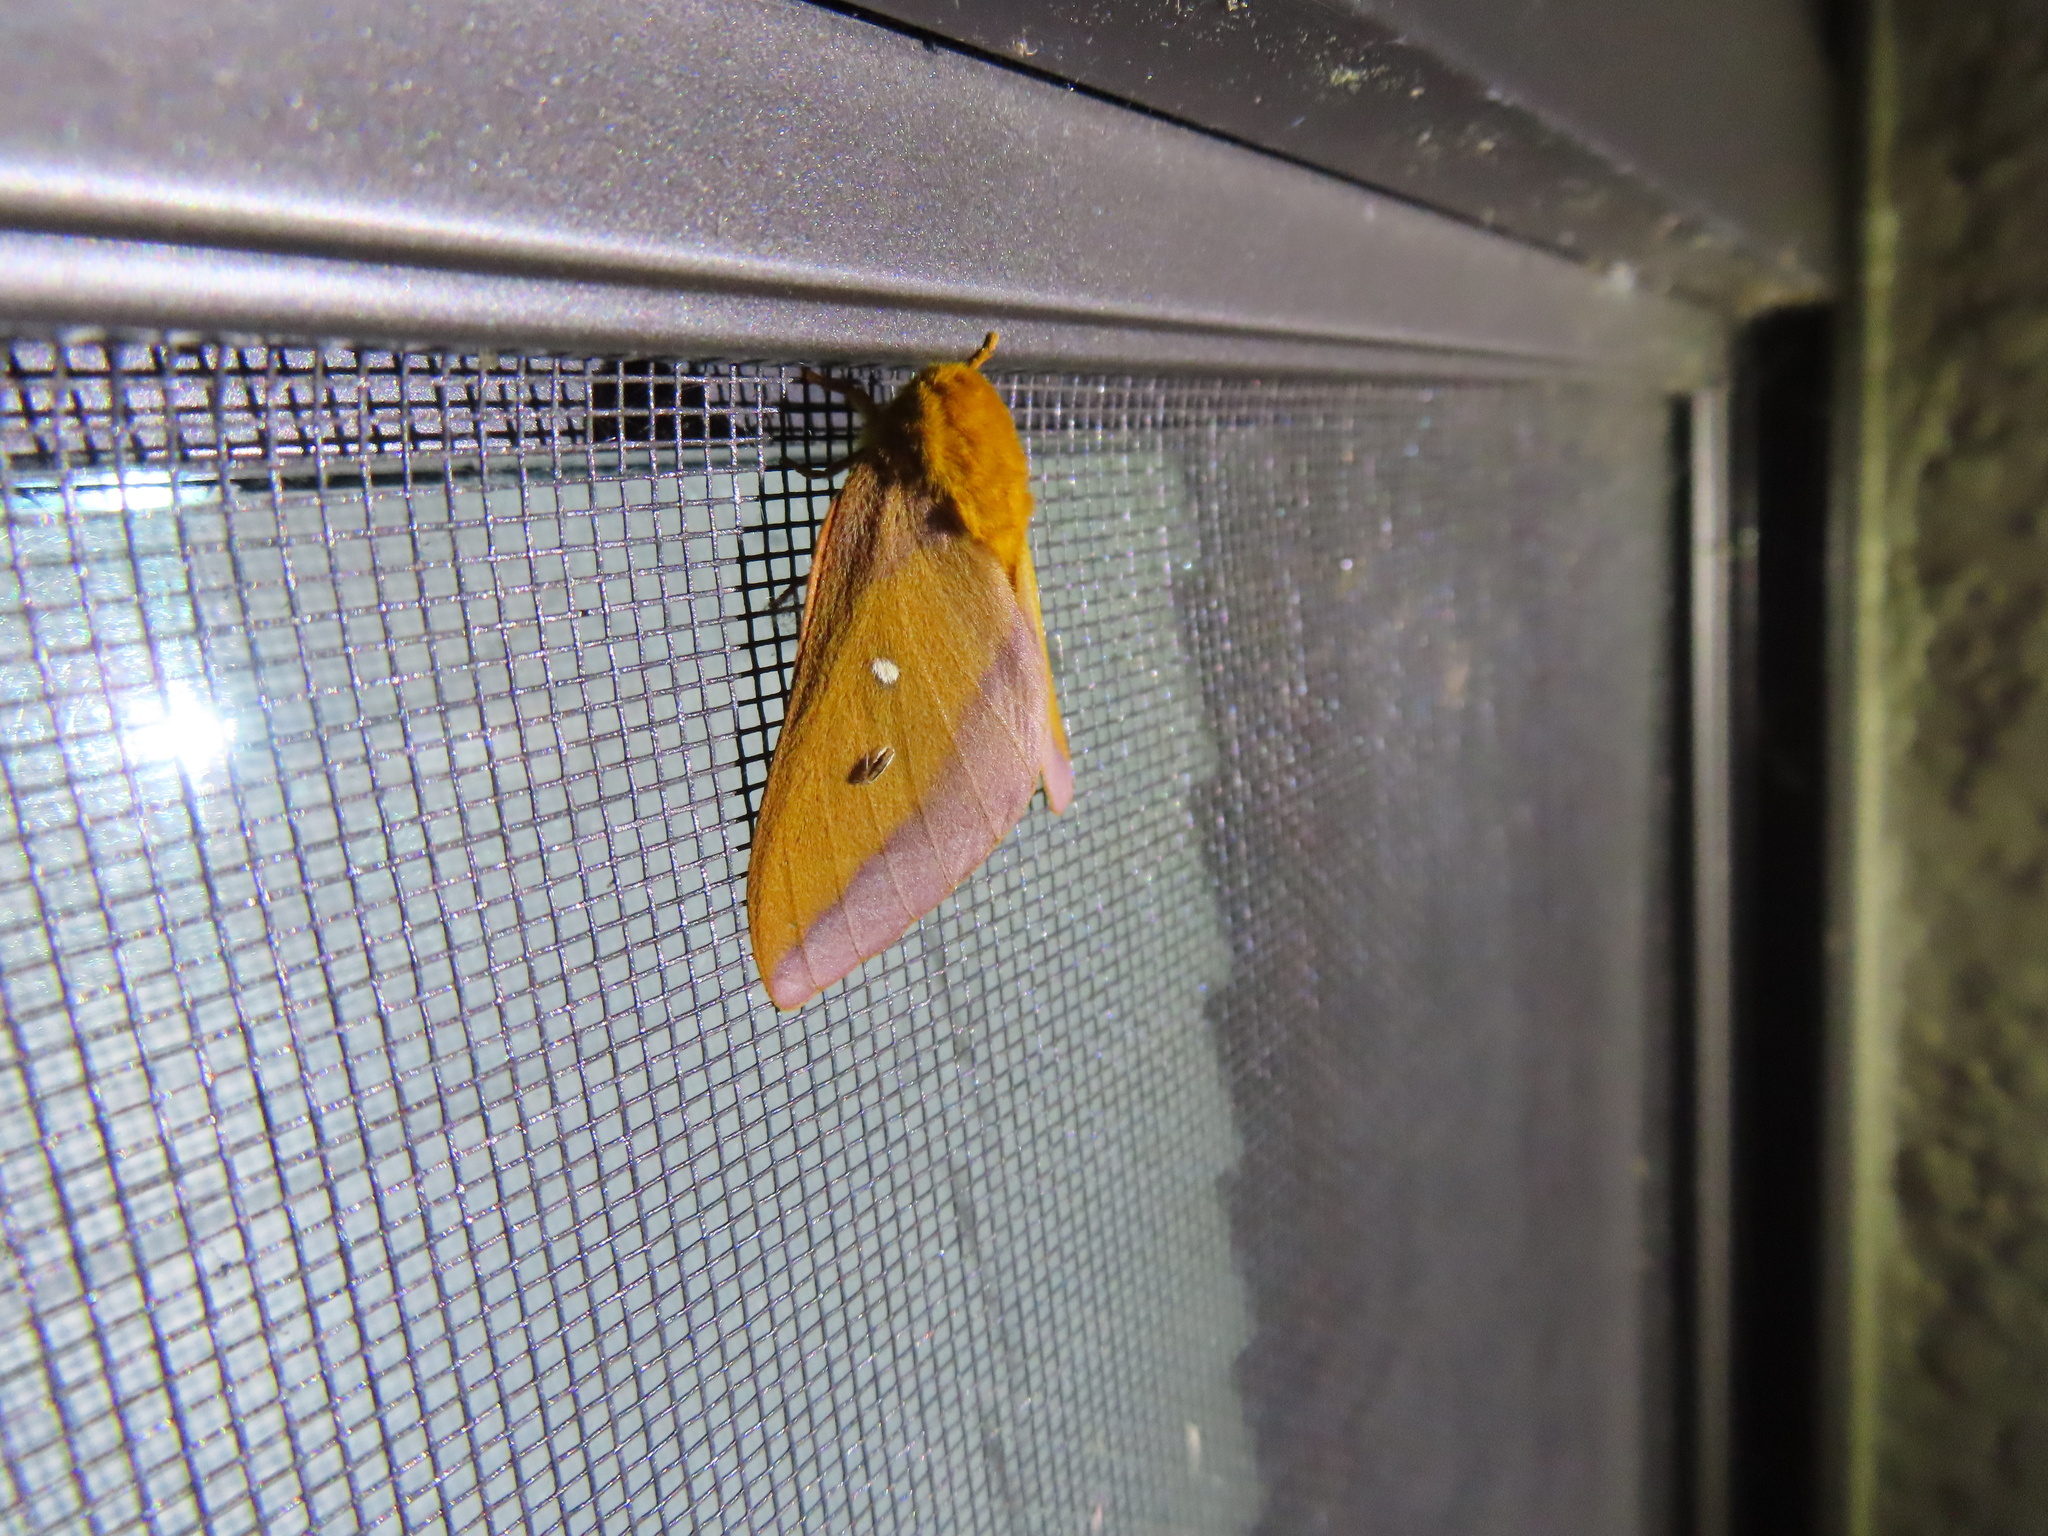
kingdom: Animalia
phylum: Arthropoda
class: Insecta
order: Lepidoptera
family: Saturniidae
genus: Anisota
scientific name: Anisota virginiensis
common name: Pink striped oakworm moth
